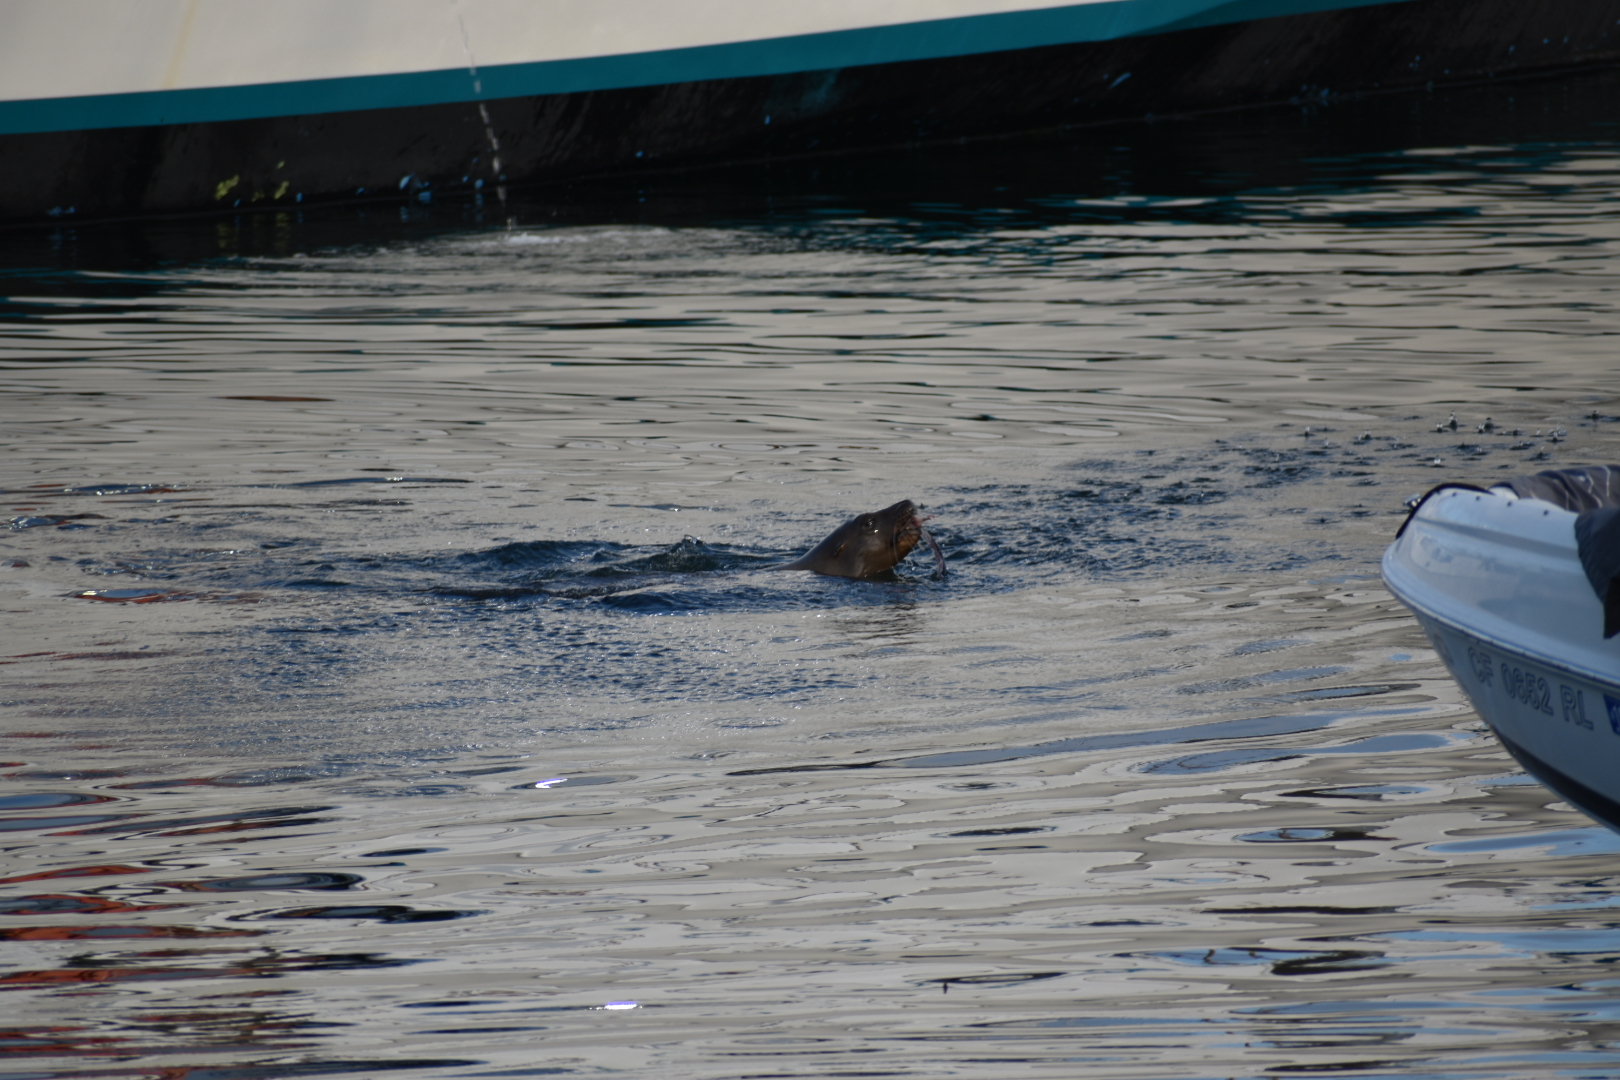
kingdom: Animalia
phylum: Chordata
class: Mammalia
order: Carnivora
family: Otariidae
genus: Zalophus
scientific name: Zalophus californianus
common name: California sea lion
